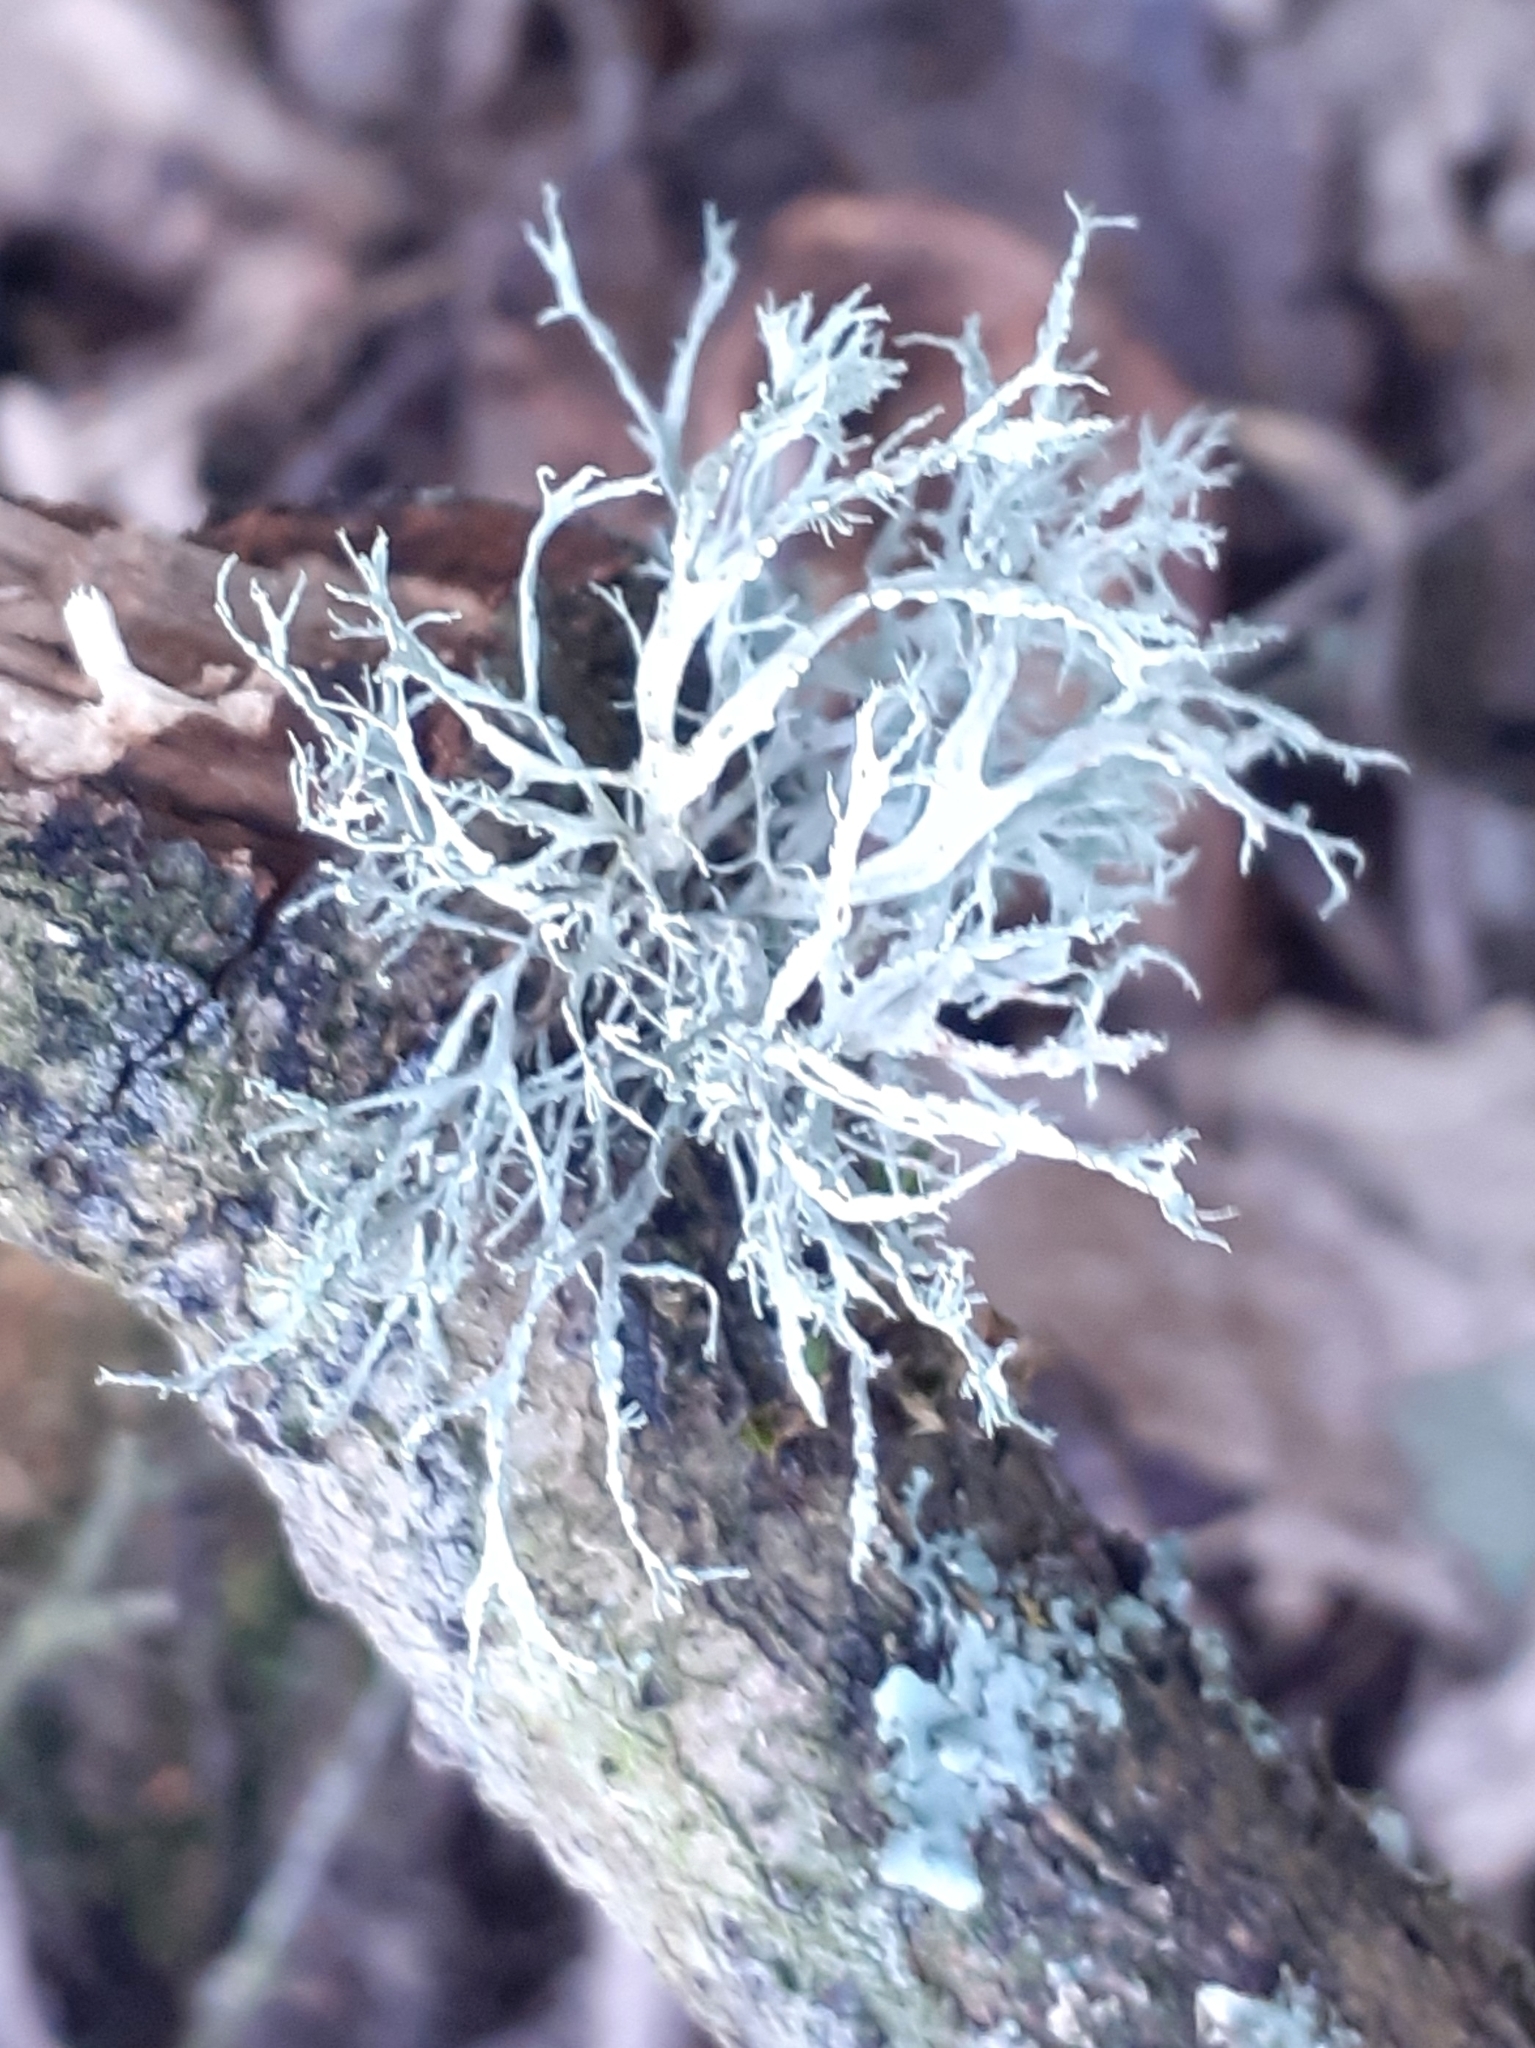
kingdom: Fungi
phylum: Ascomycota
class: Lecanoromycetes
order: Lecanorales
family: Ramalinaceae
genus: Ramalina
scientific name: Ramalina farinacea
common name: Farinose cartilage lichen
